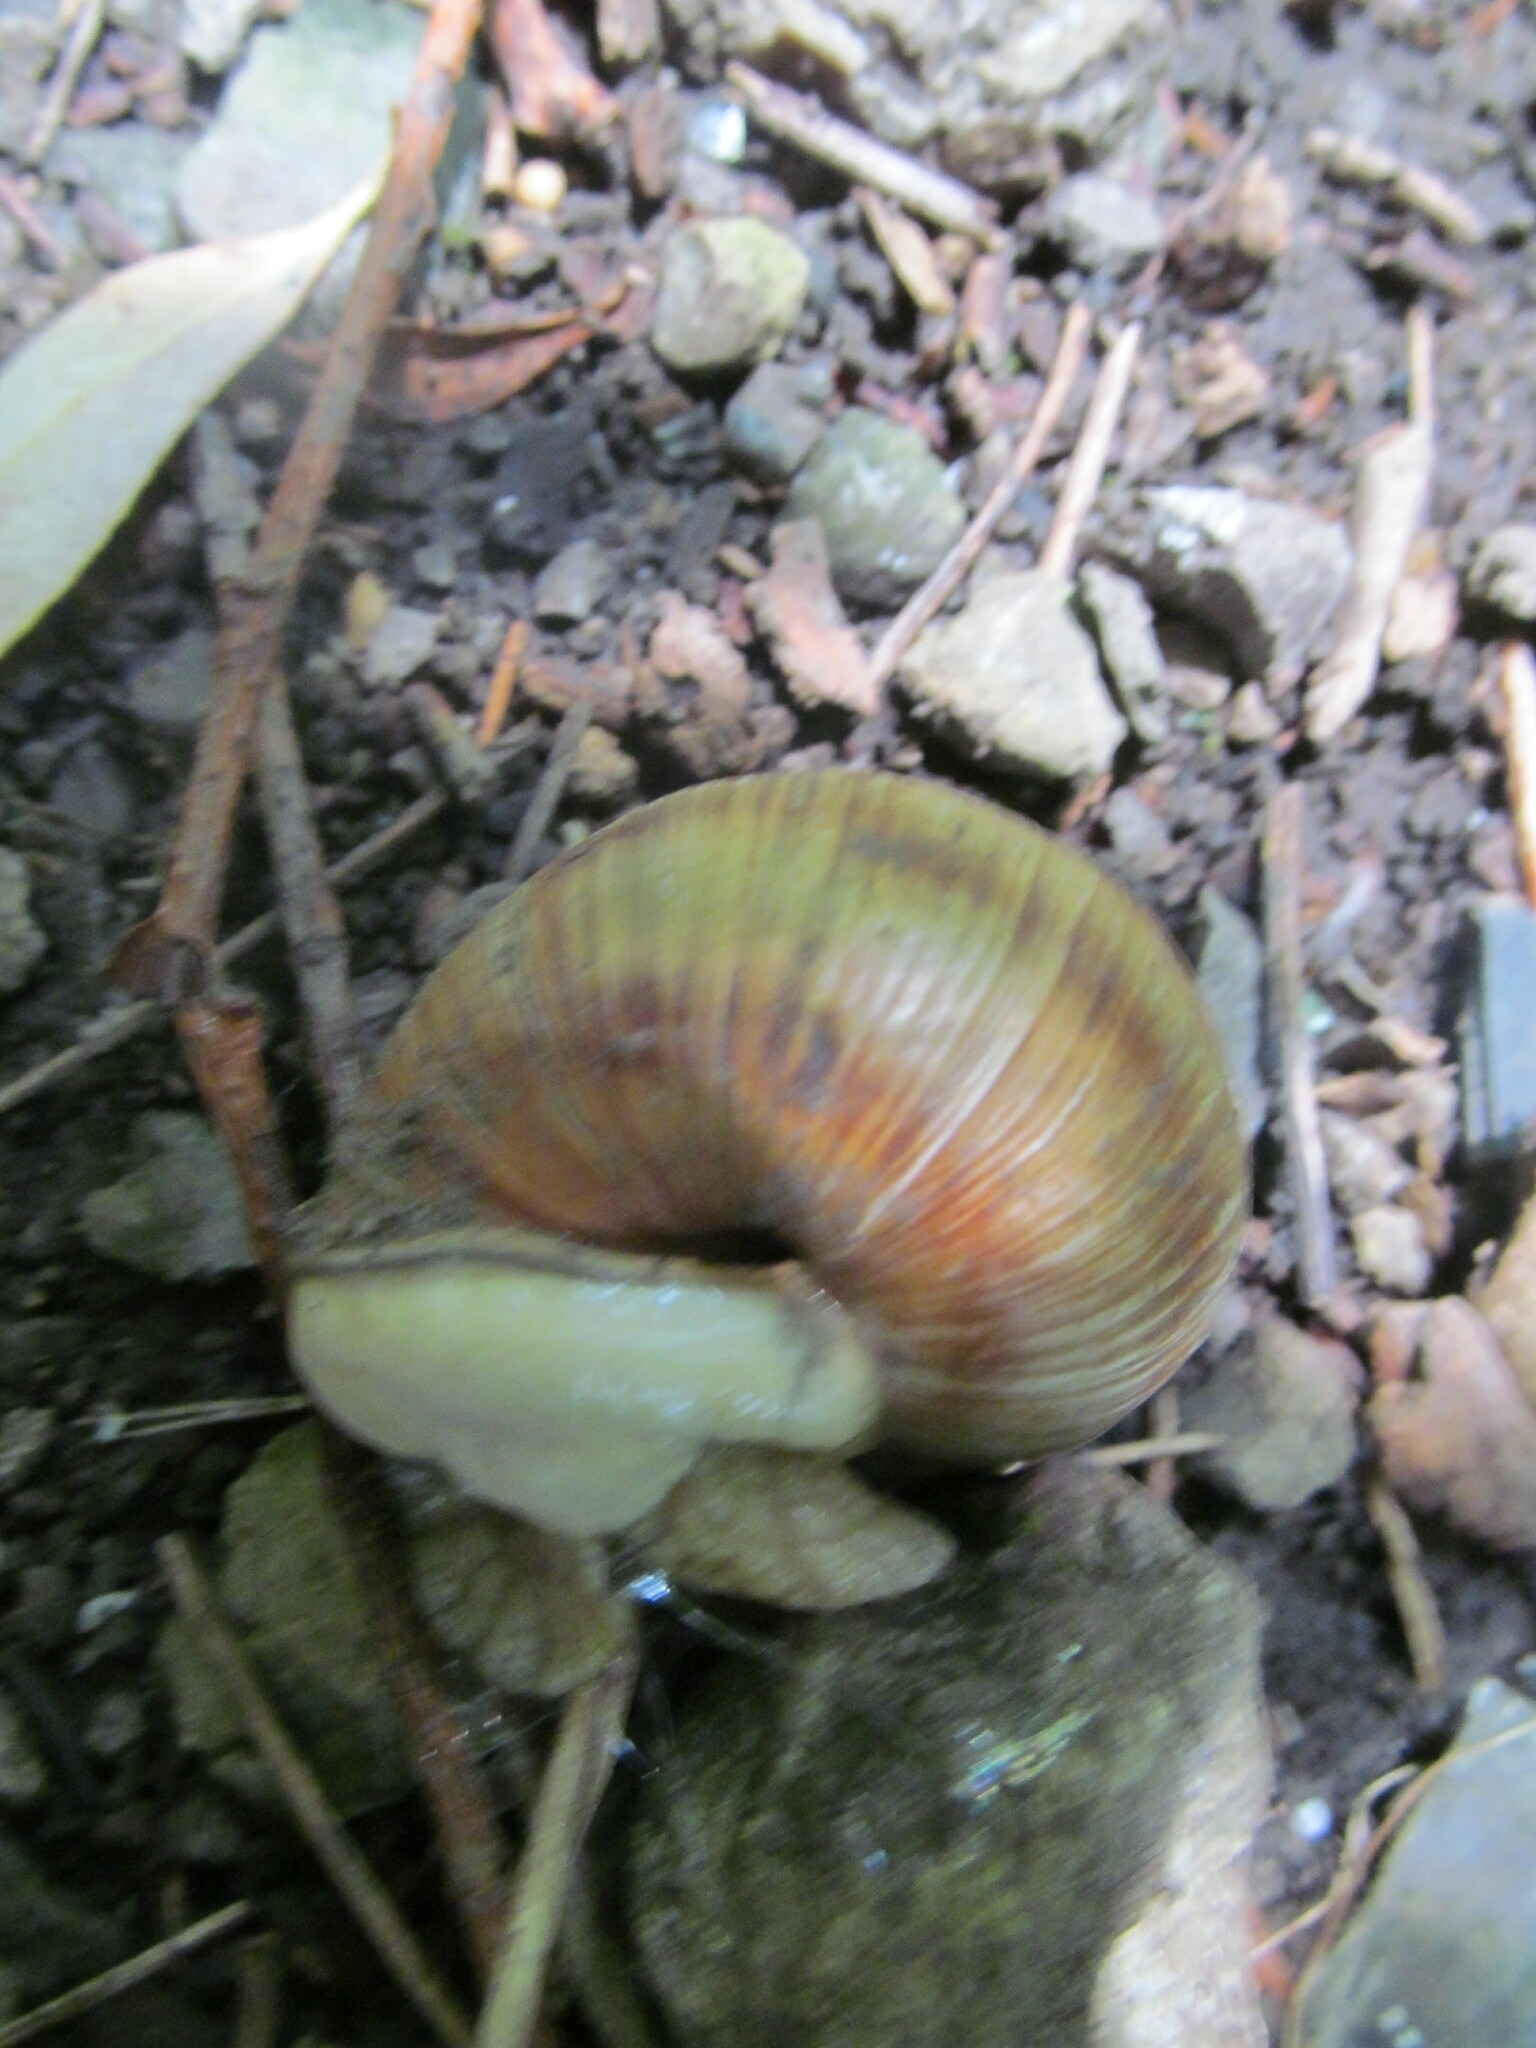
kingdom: Animalia
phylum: Mollusca
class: Gastropoda
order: Stylommatophora
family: Helicidae
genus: Helix
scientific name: Helix pomatia
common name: Roman snail
